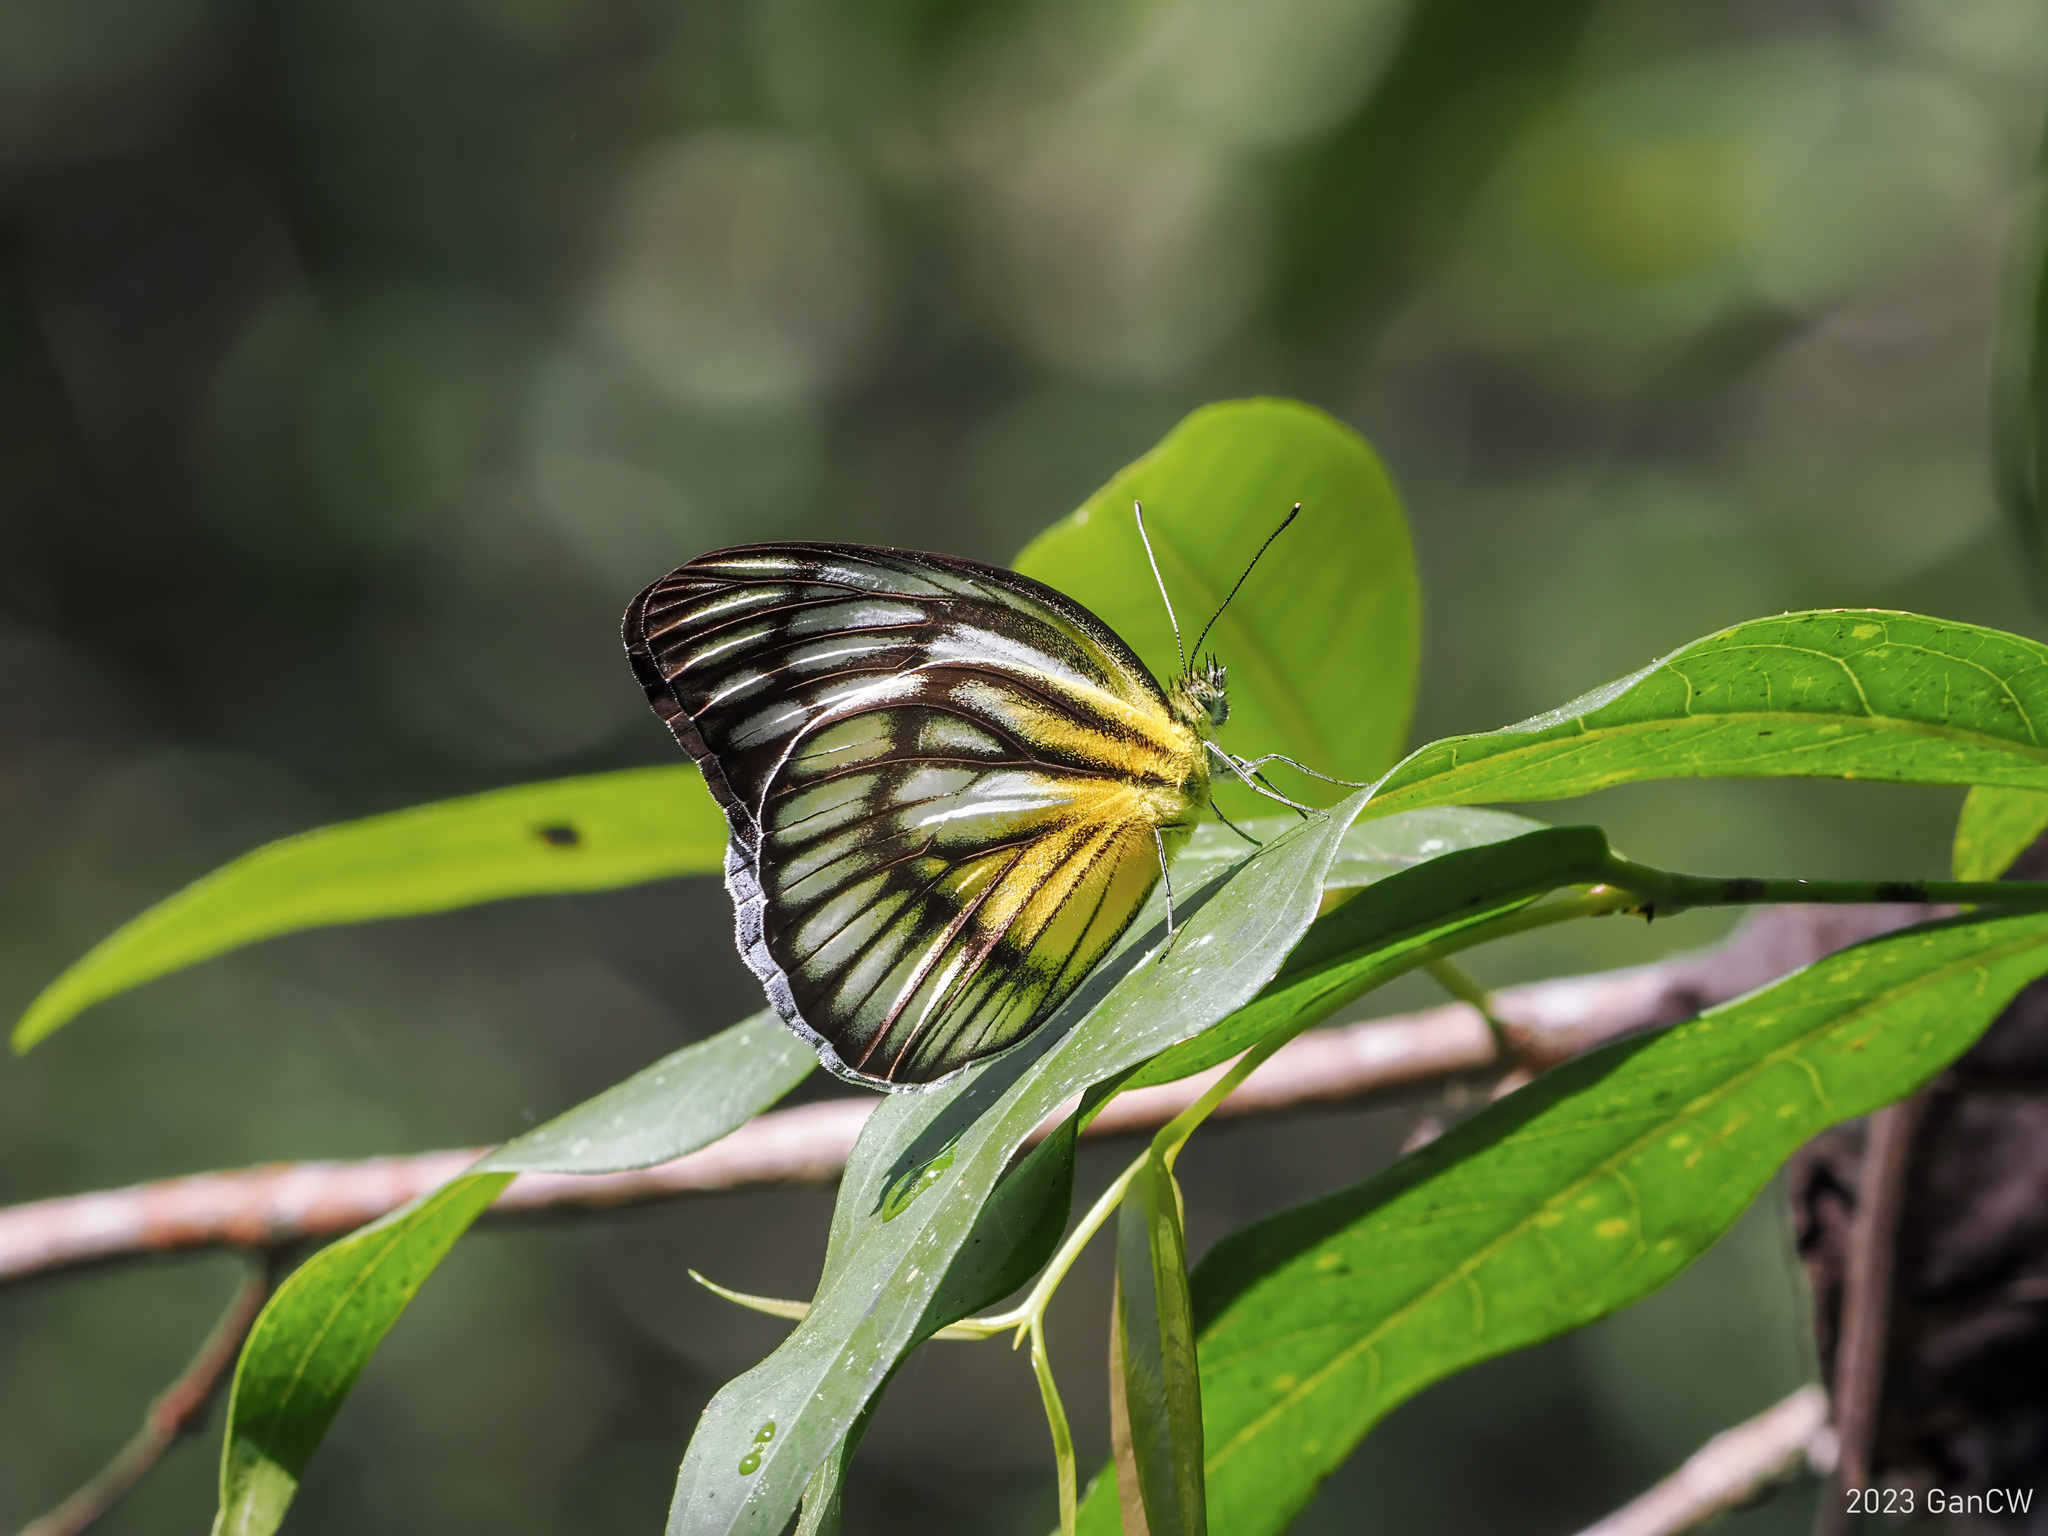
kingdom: Animalia
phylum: Arthropoda
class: Insecta
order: Lepidoptera
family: Pieridae
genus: Cepora
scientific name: Cepora celebensis
